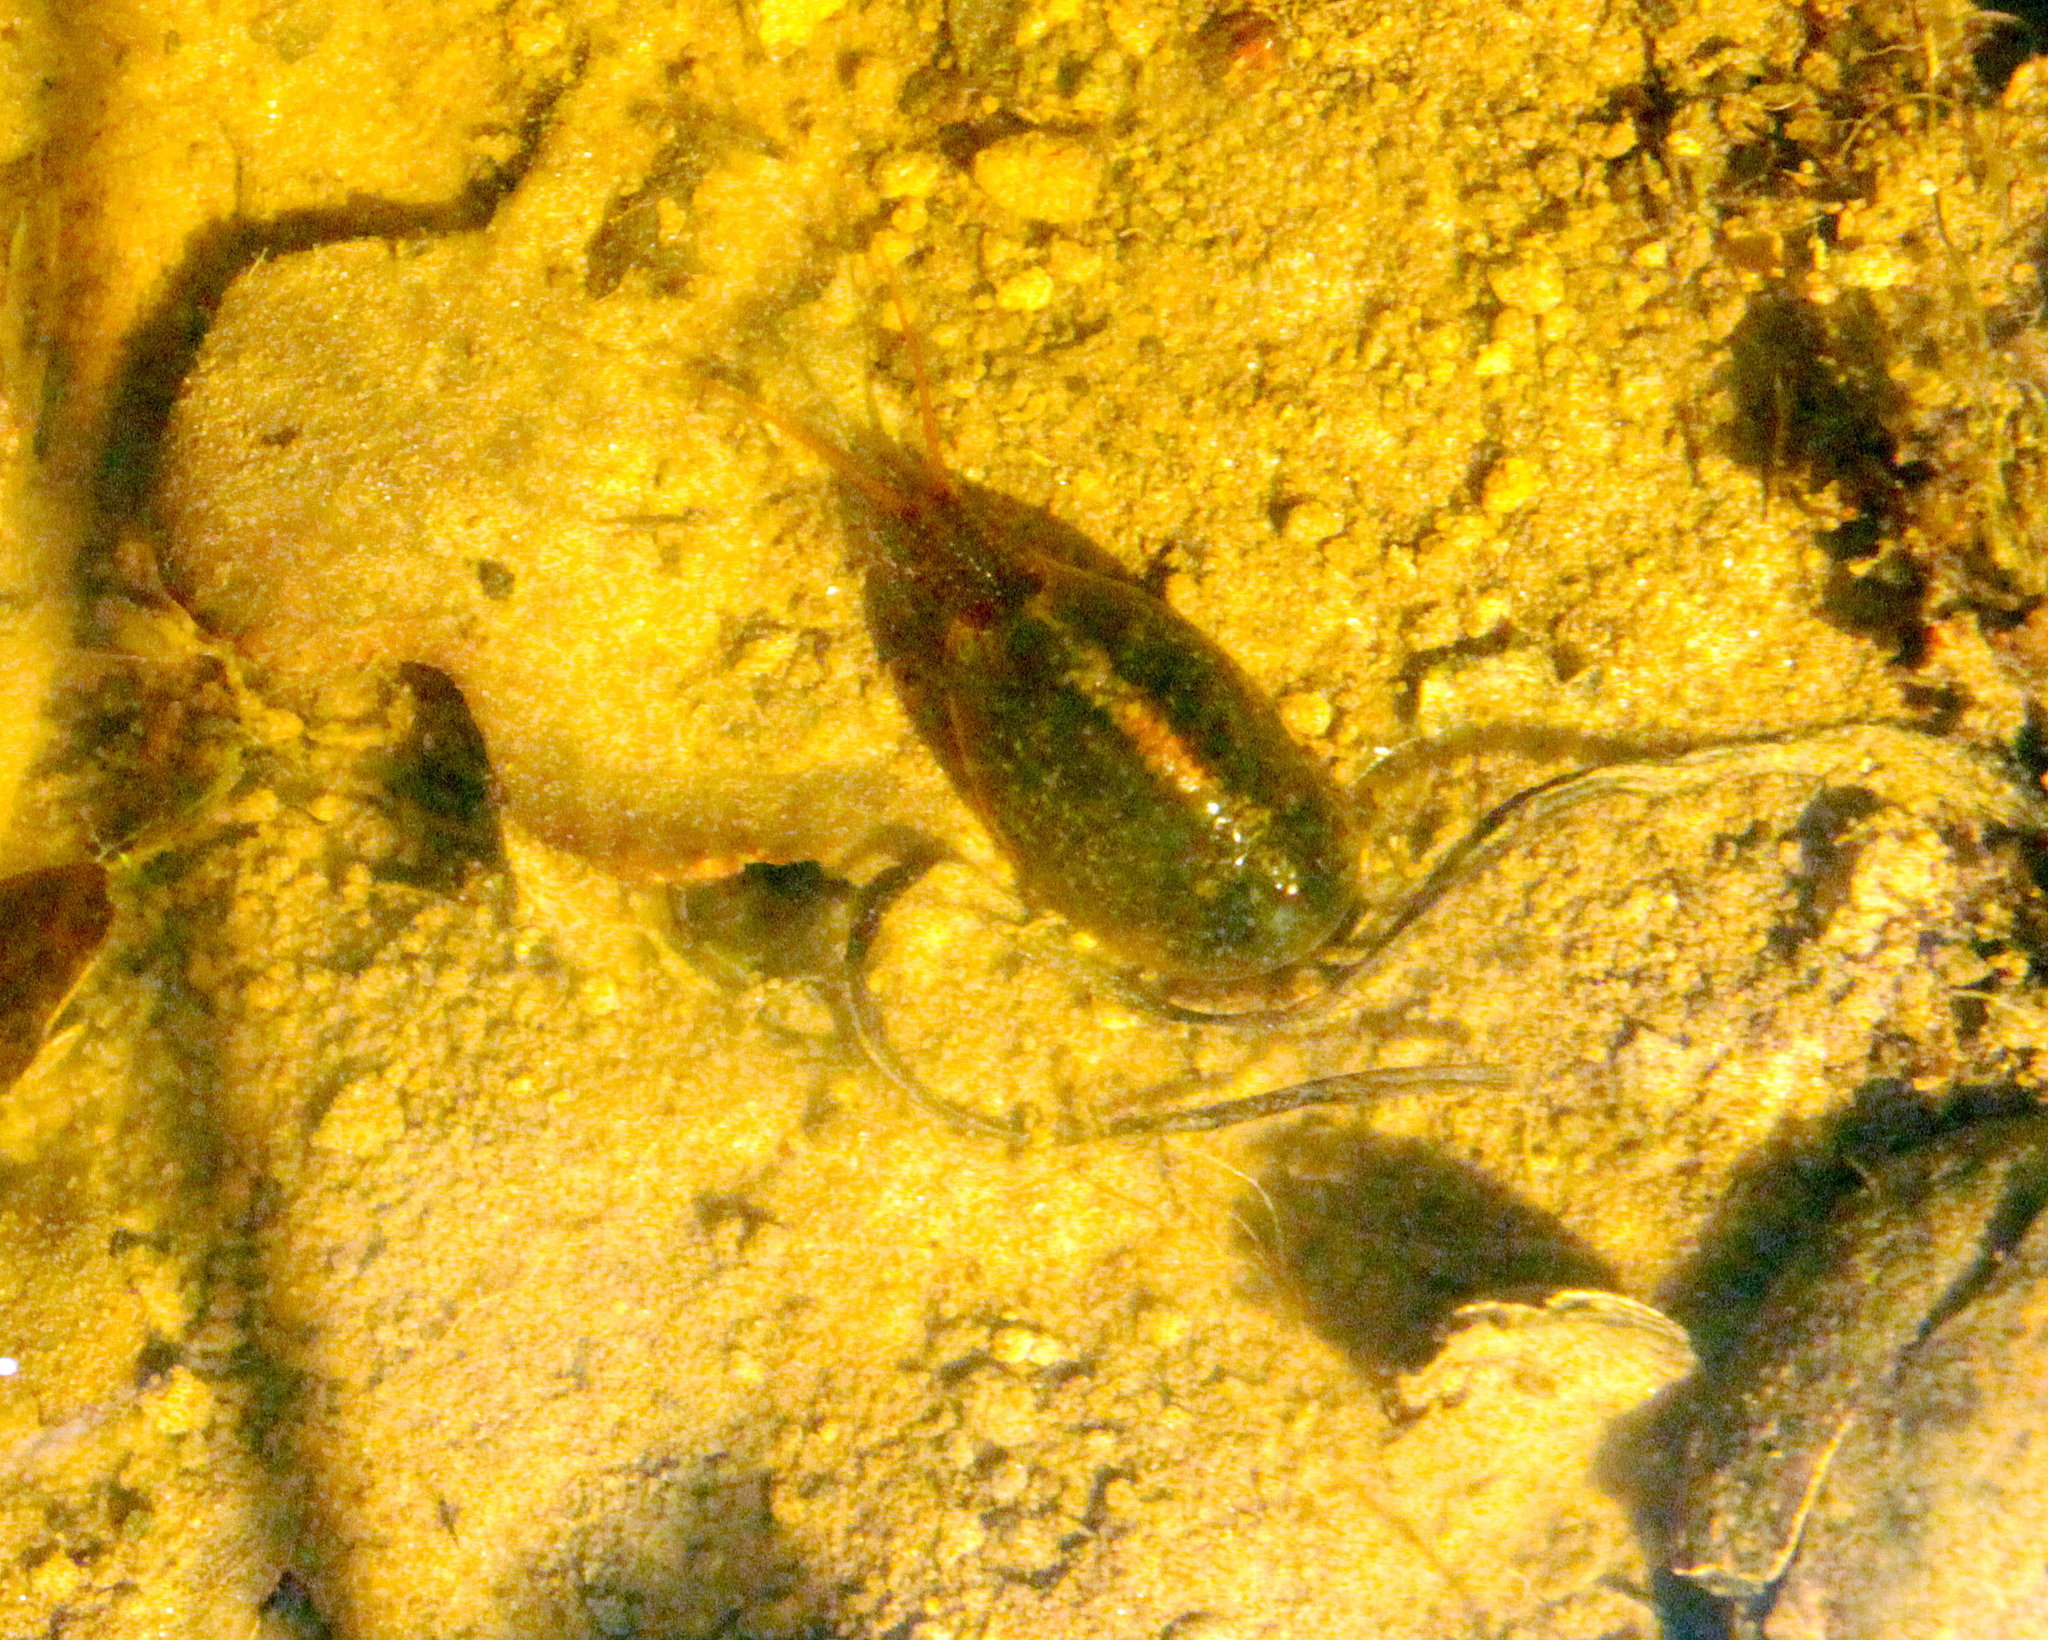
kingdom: Animalia
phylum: Arthropoda
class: Branchiopoda
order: Notostraca
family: Triopsidae
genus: Triops
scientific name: Triops cancriformis
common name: Tadpole shrimp
